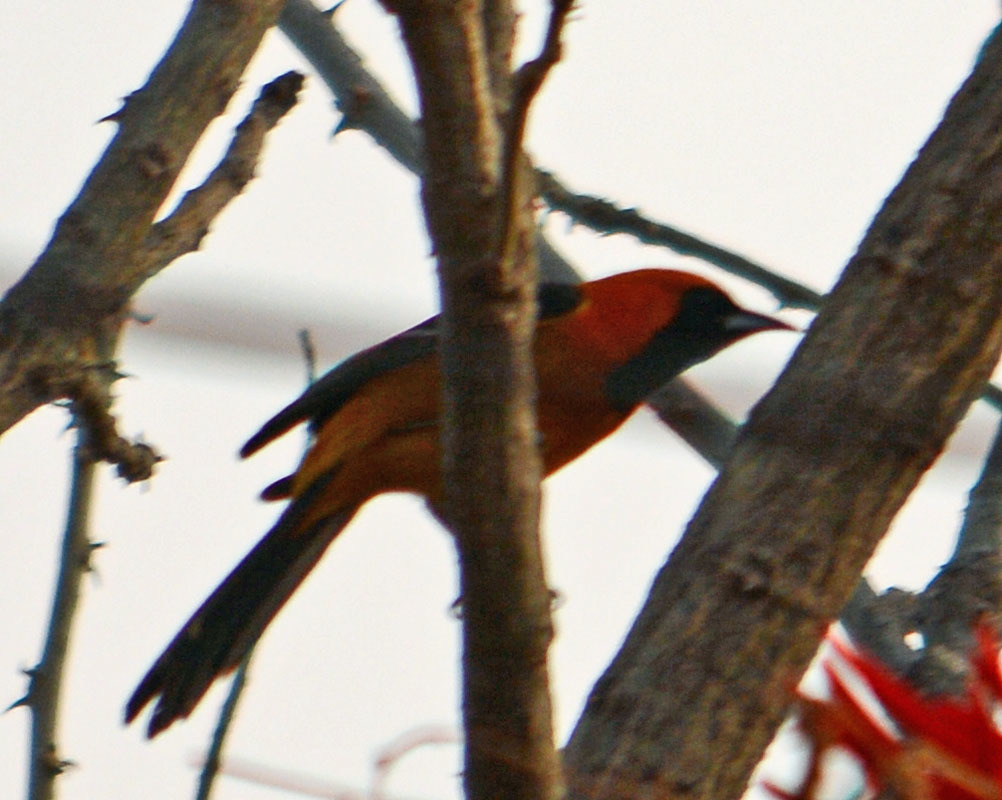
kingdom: Animalia
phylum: Chordata
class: Aves
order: Passeriformes
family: Icteridae
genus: Icterus
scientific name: Icterus cucullatus
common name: Hooded oriole
